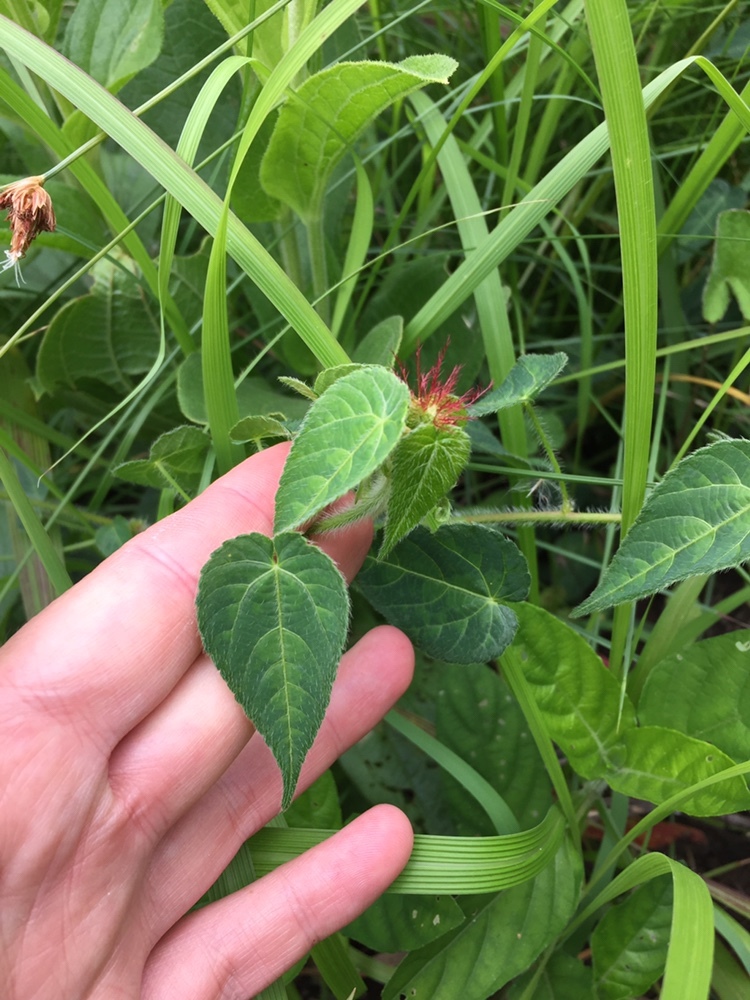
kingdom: Plantae
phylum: Tracheophyta
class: Magnoliopsida
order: Malpighiales
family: Euphorbiaceae
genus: Acalypha
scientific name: Acalypha petiolaris
